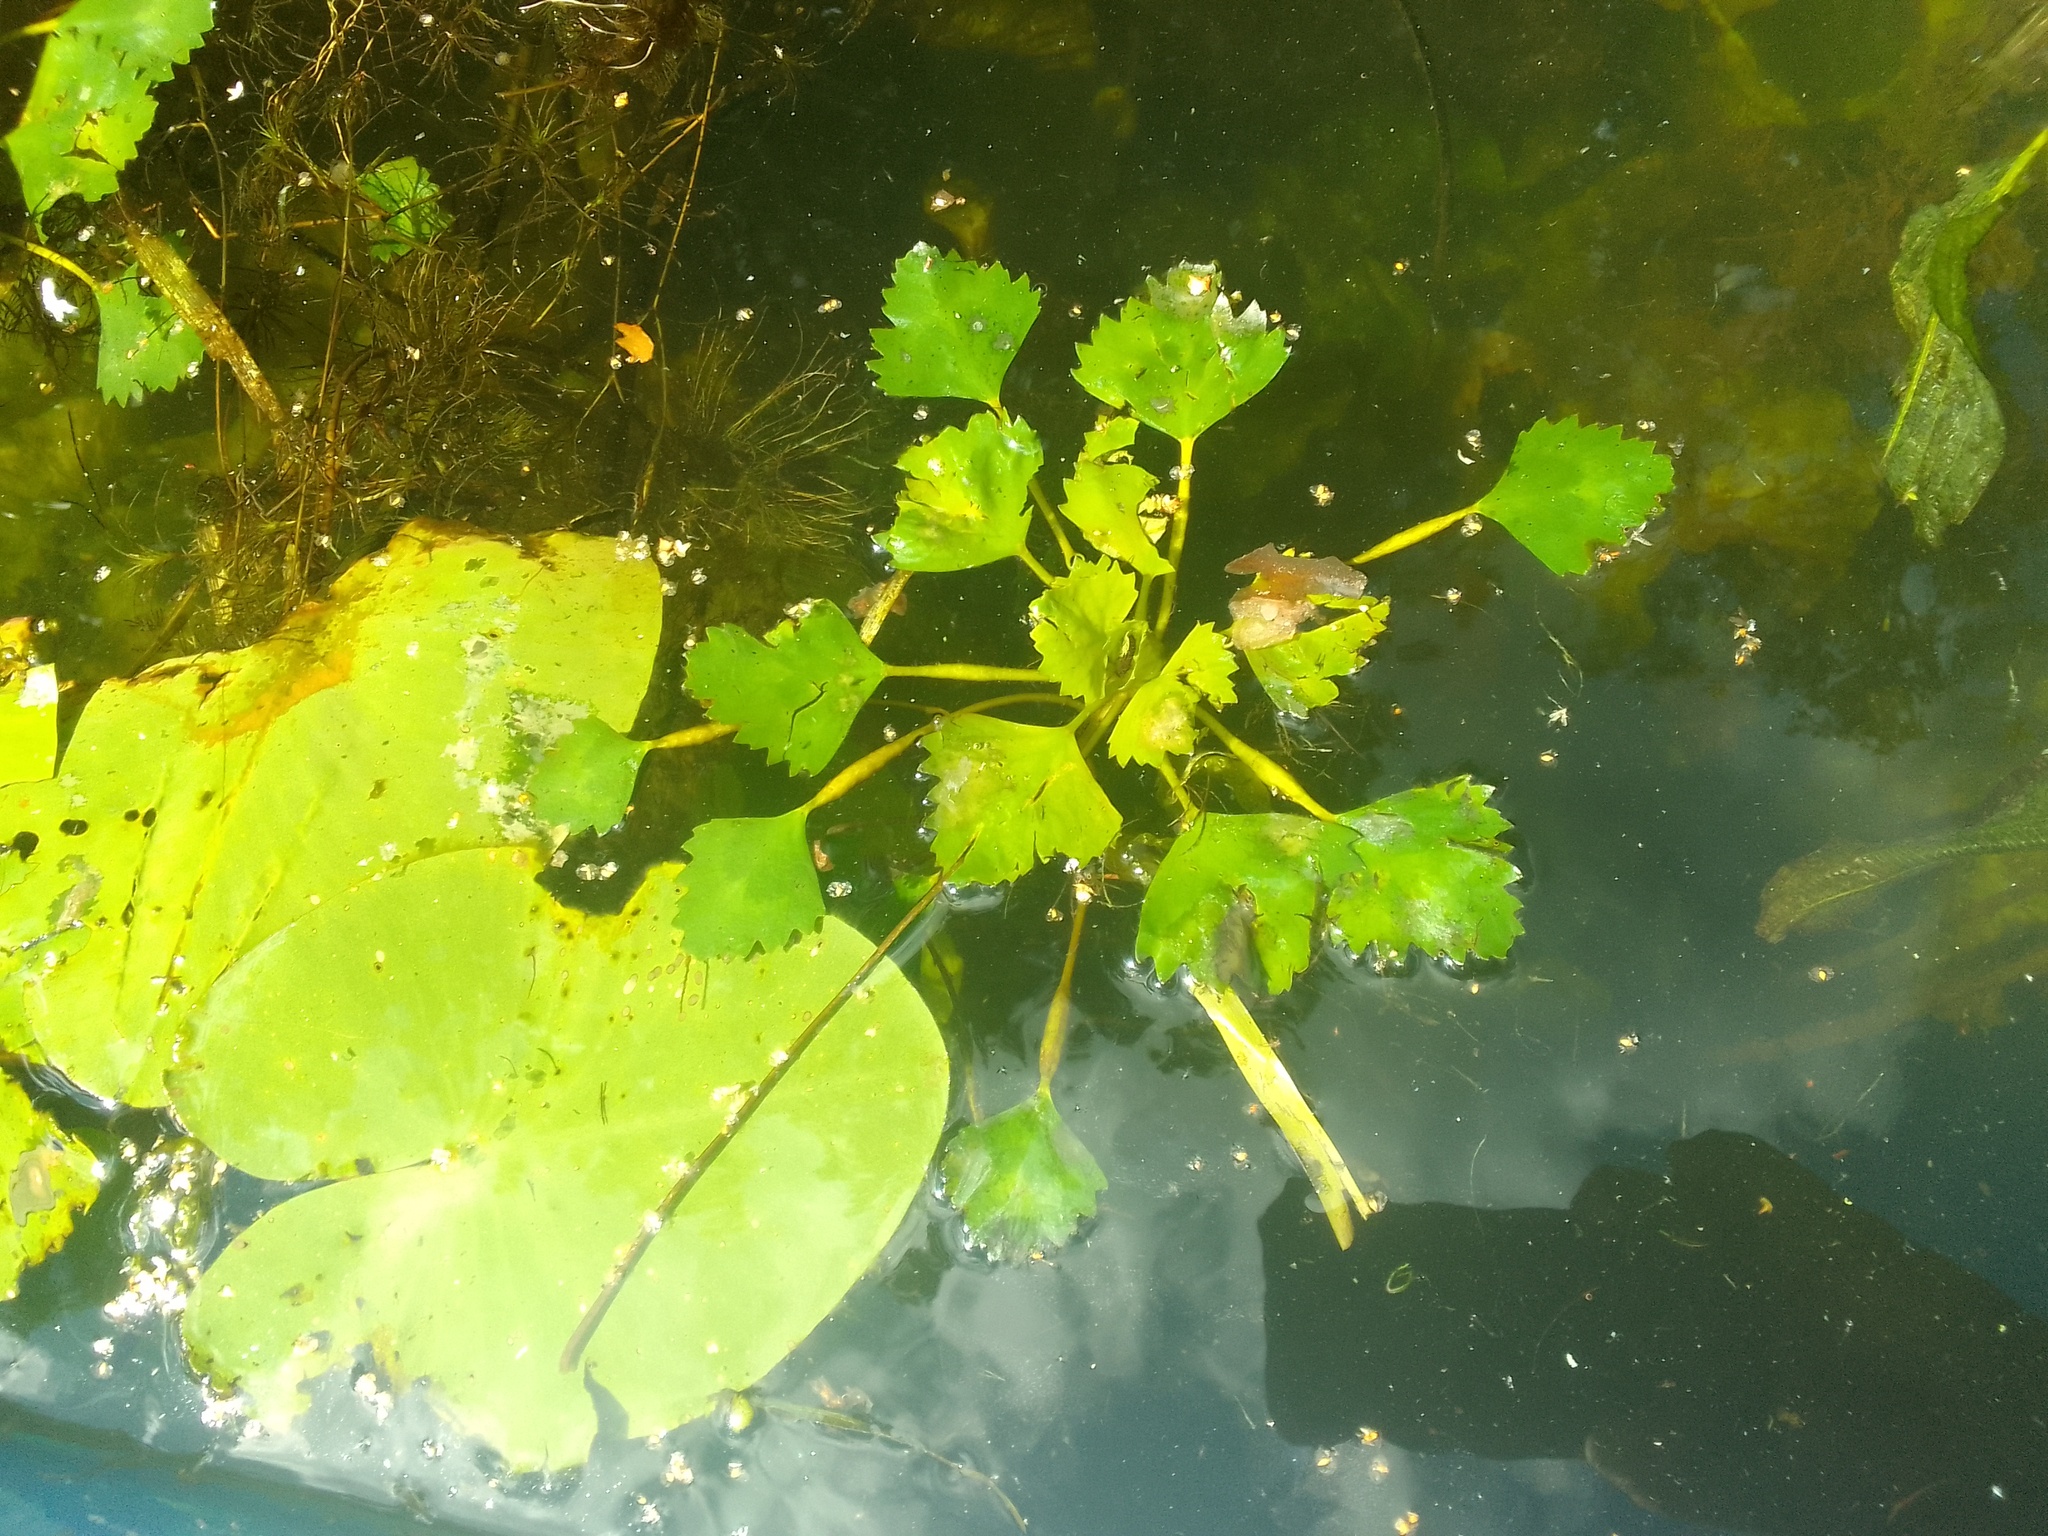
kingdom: Plantae
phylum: Tracheophyta
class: Magnoliopsida
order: Myrtales
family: Lythraceae
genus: Trapa
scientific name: Trapa natans
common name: Water chestnut
